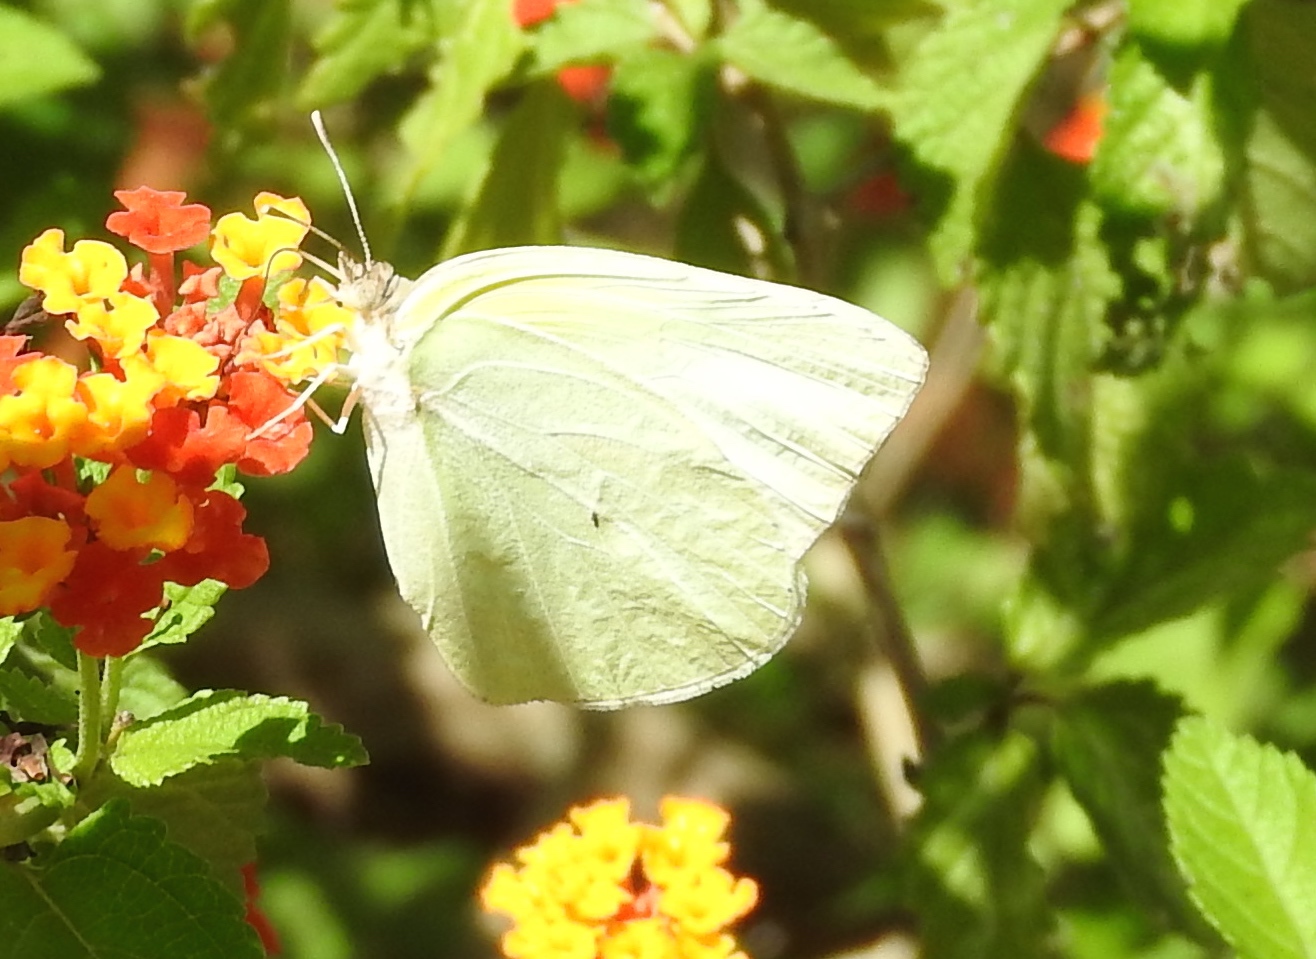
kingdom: Animalia
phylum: Arthropoda
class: Insecta
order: Lepidoptera
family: Pieridae
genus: Kricogonia
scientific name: Kricogonia lyside
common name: Guayacan sulphur,
